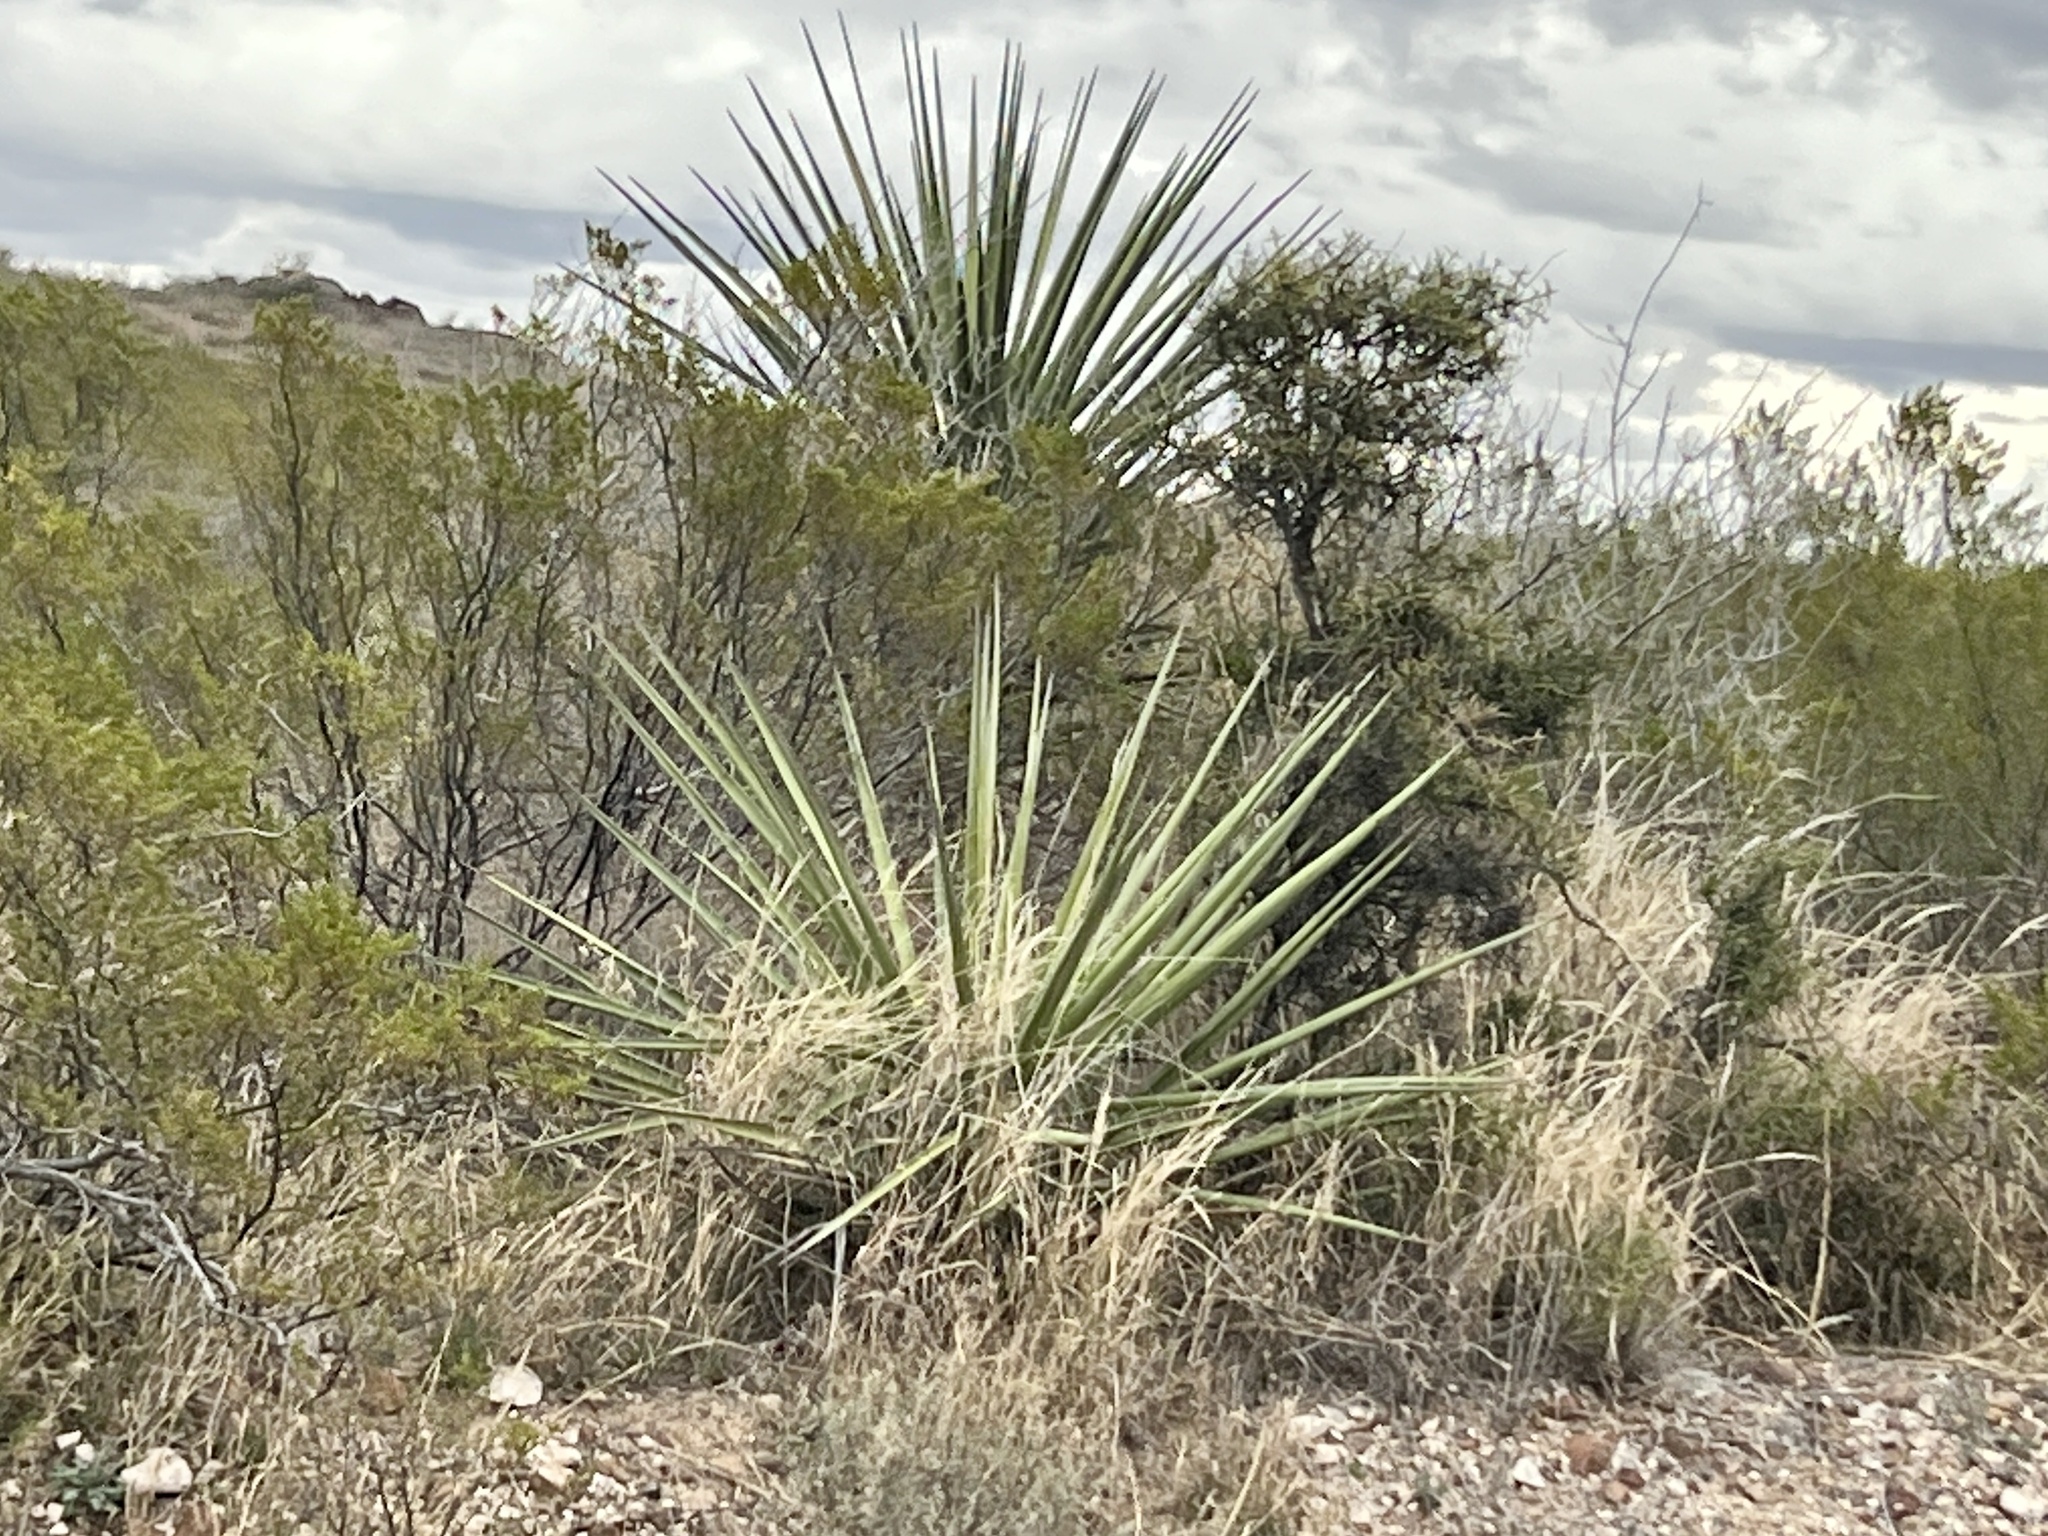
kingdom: Plantae
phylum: Tracheophyta
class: Liliopsida
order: Asparagales
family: Asparagaceae
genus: Yucca
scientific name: Yucca treculiana
